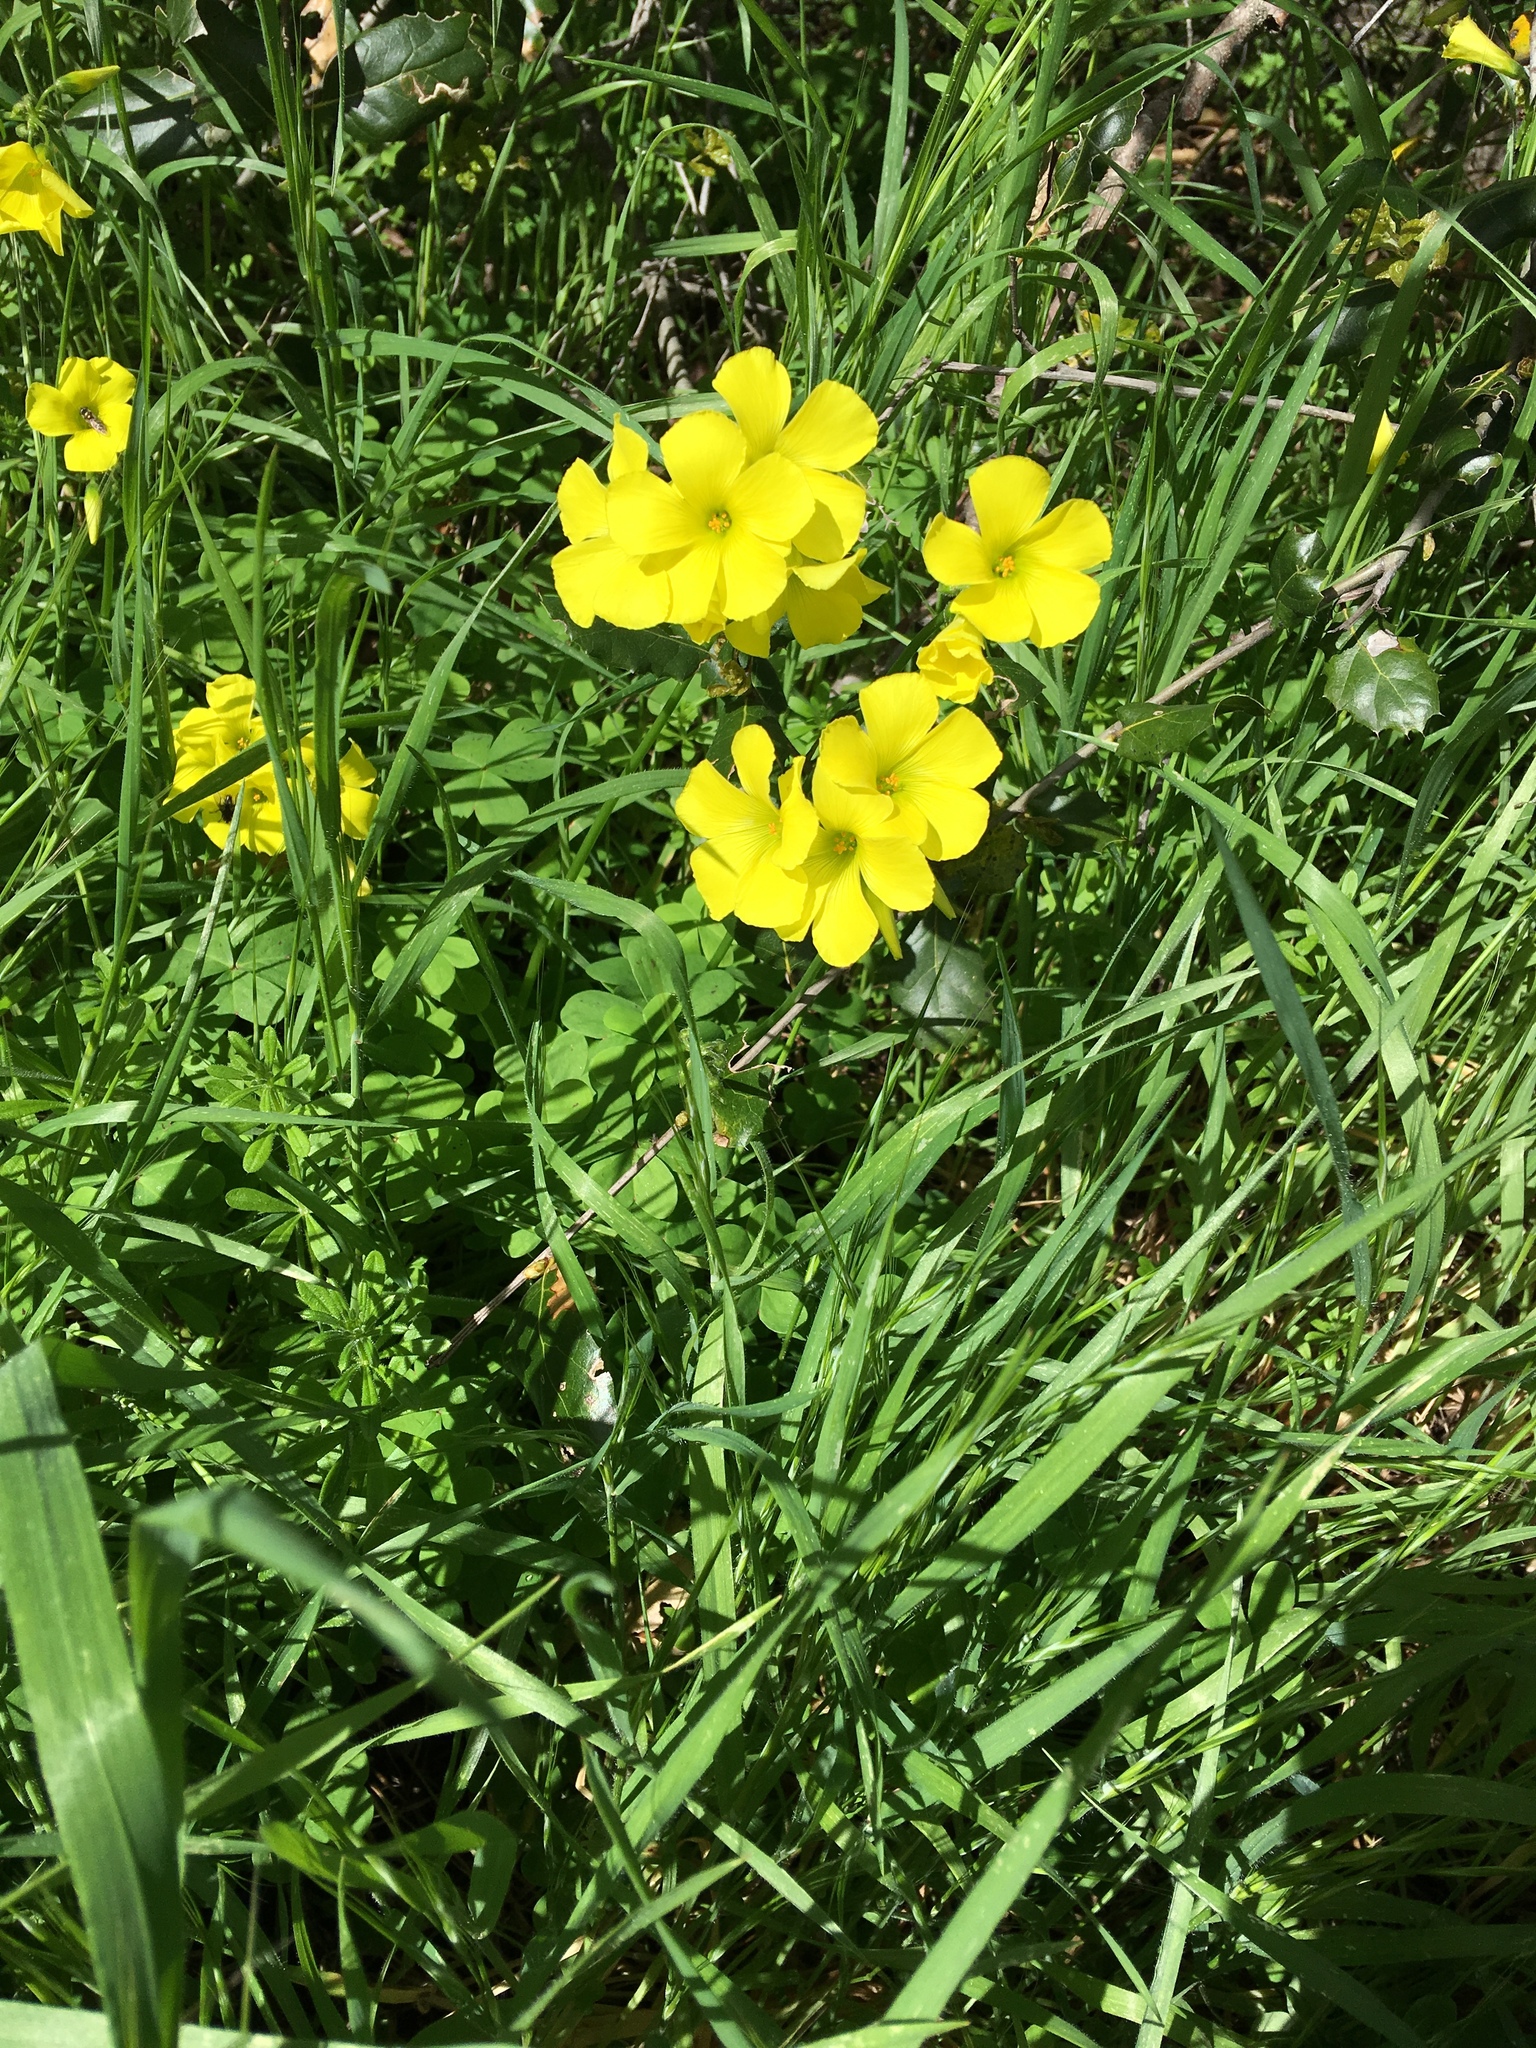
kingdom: Plantae
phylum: Tracheophyta
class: Magnoliopsida
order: Oxalidales
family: Oxalidaceae
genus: Oxalis
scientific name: Oxalis pes-caprae
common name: Bermuda-buttercup
